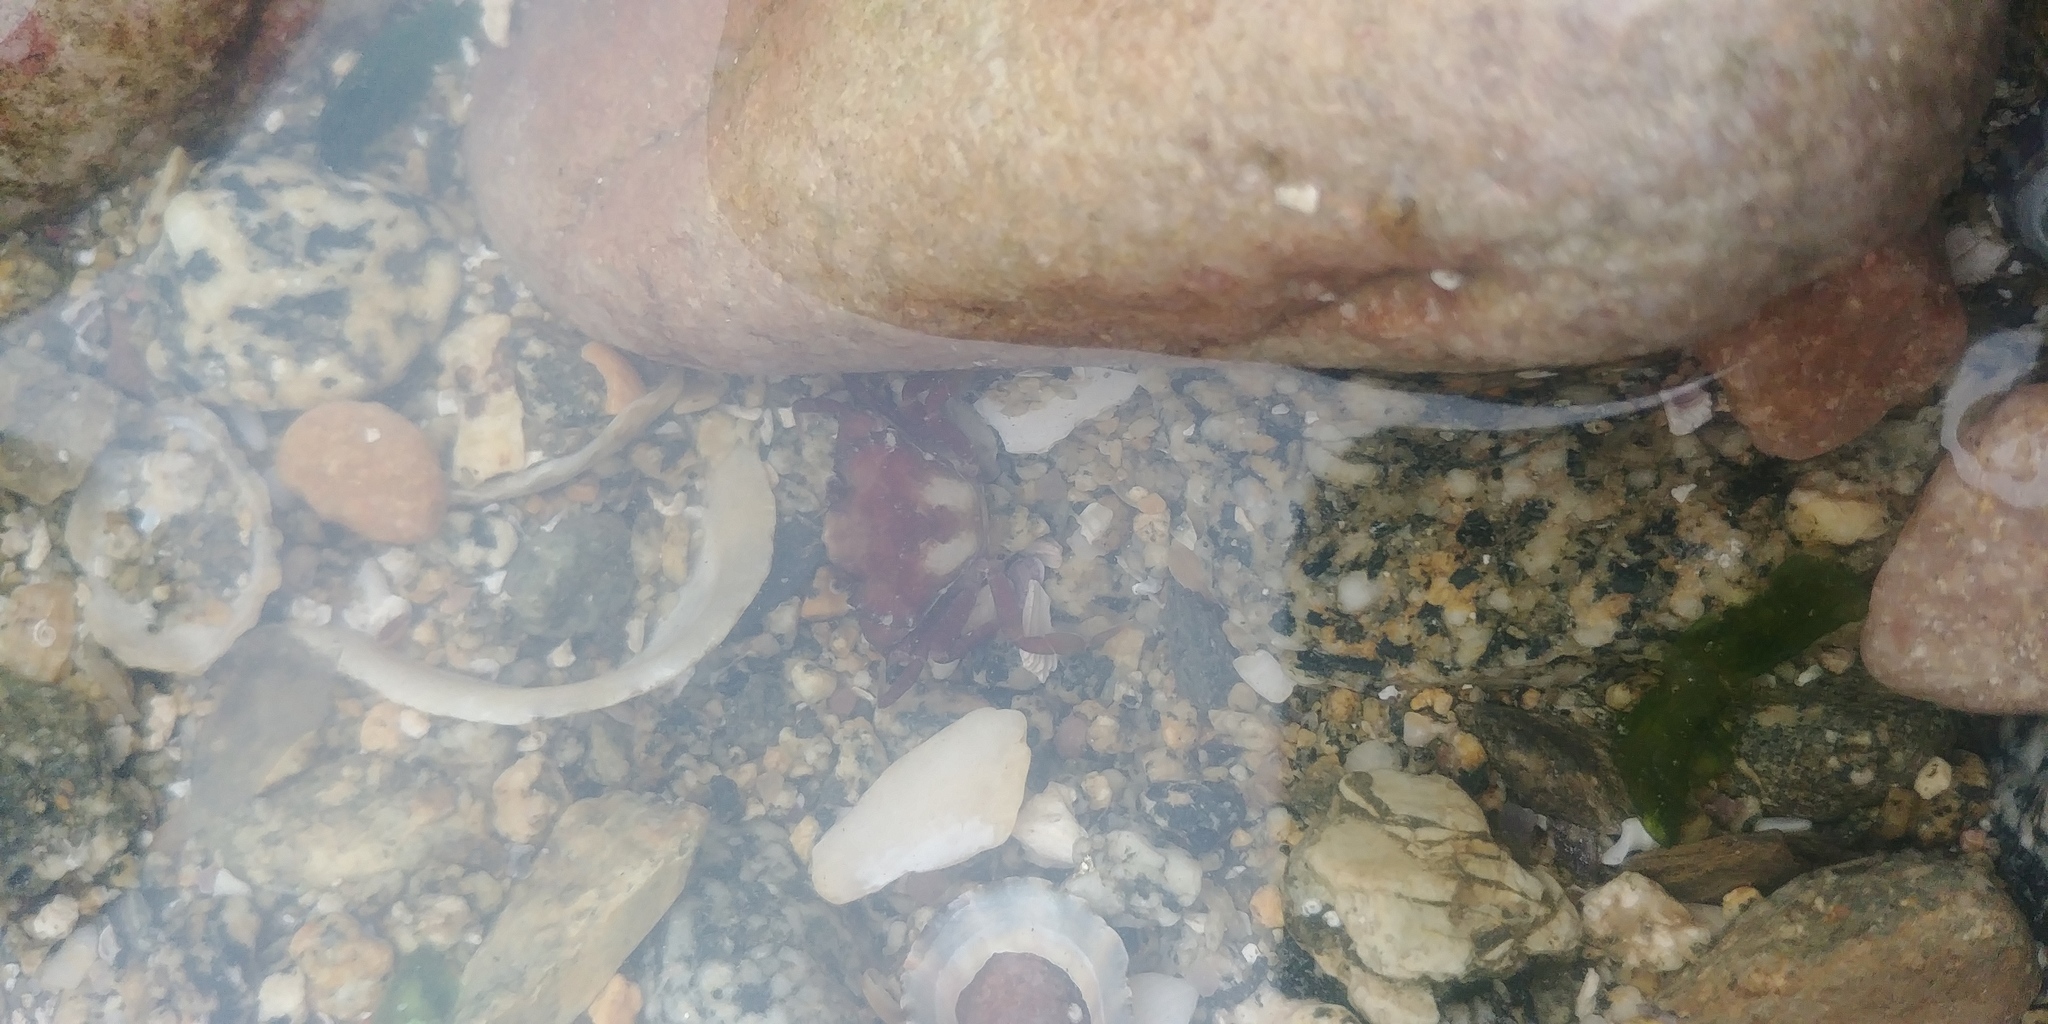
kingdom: Animalia
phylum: Arthropoda
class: Malacostraca
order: Decapoda
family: Carcinidae
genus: Carcinus
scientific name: Carcinus maenas
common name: European green crab
